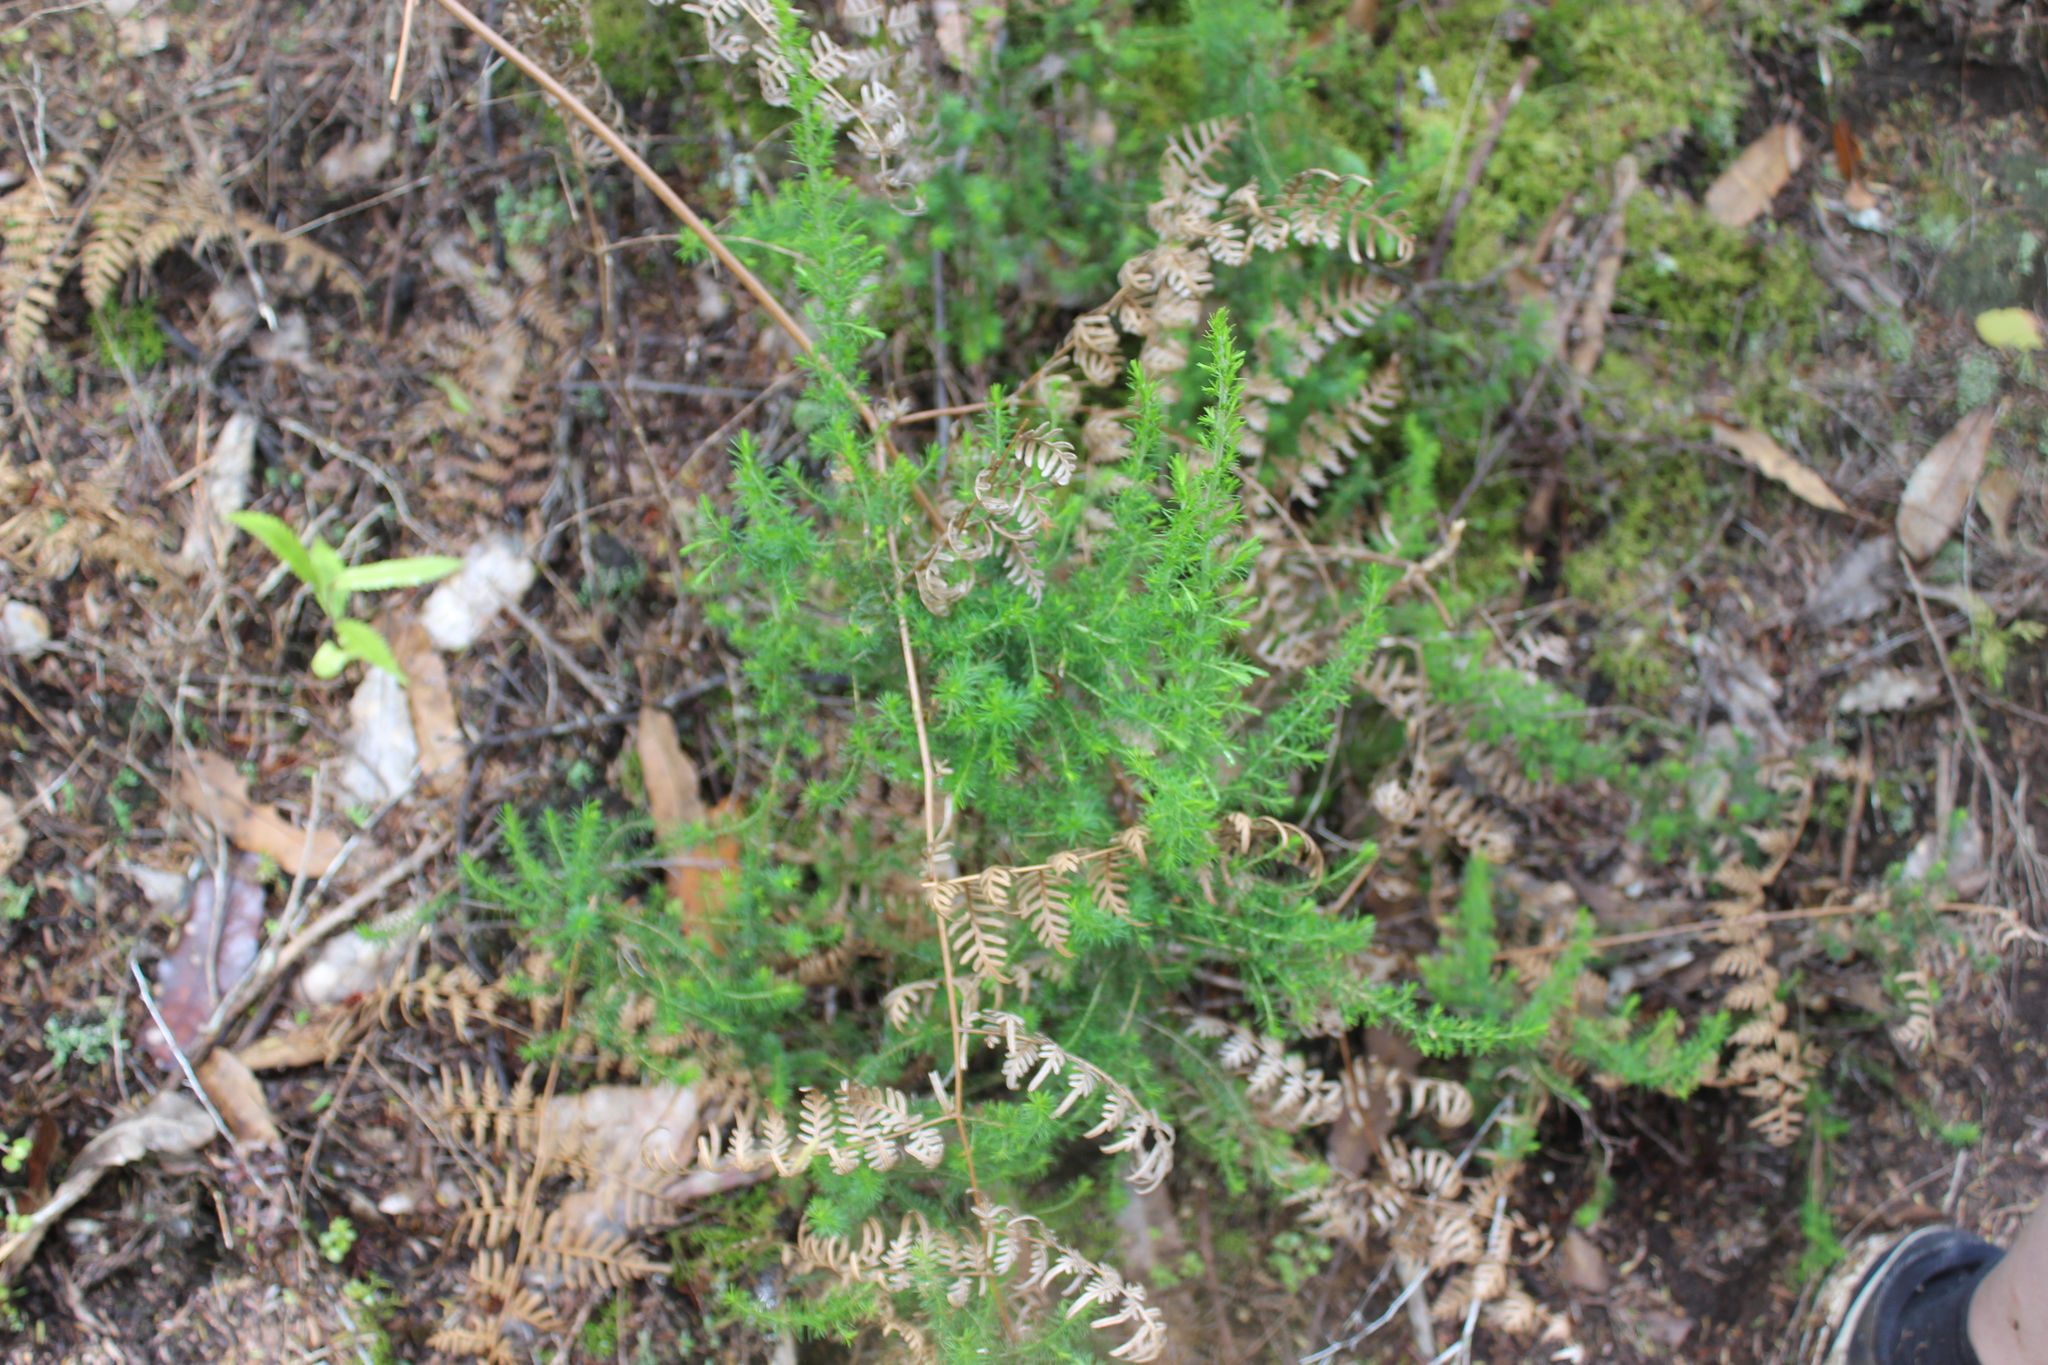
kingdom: Plantae
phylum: Tracheophyta
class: Magnoliopsida
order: Ericales
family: Ericaceae
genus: Erica
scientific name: Erica lusitanica
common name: Spanish heath
